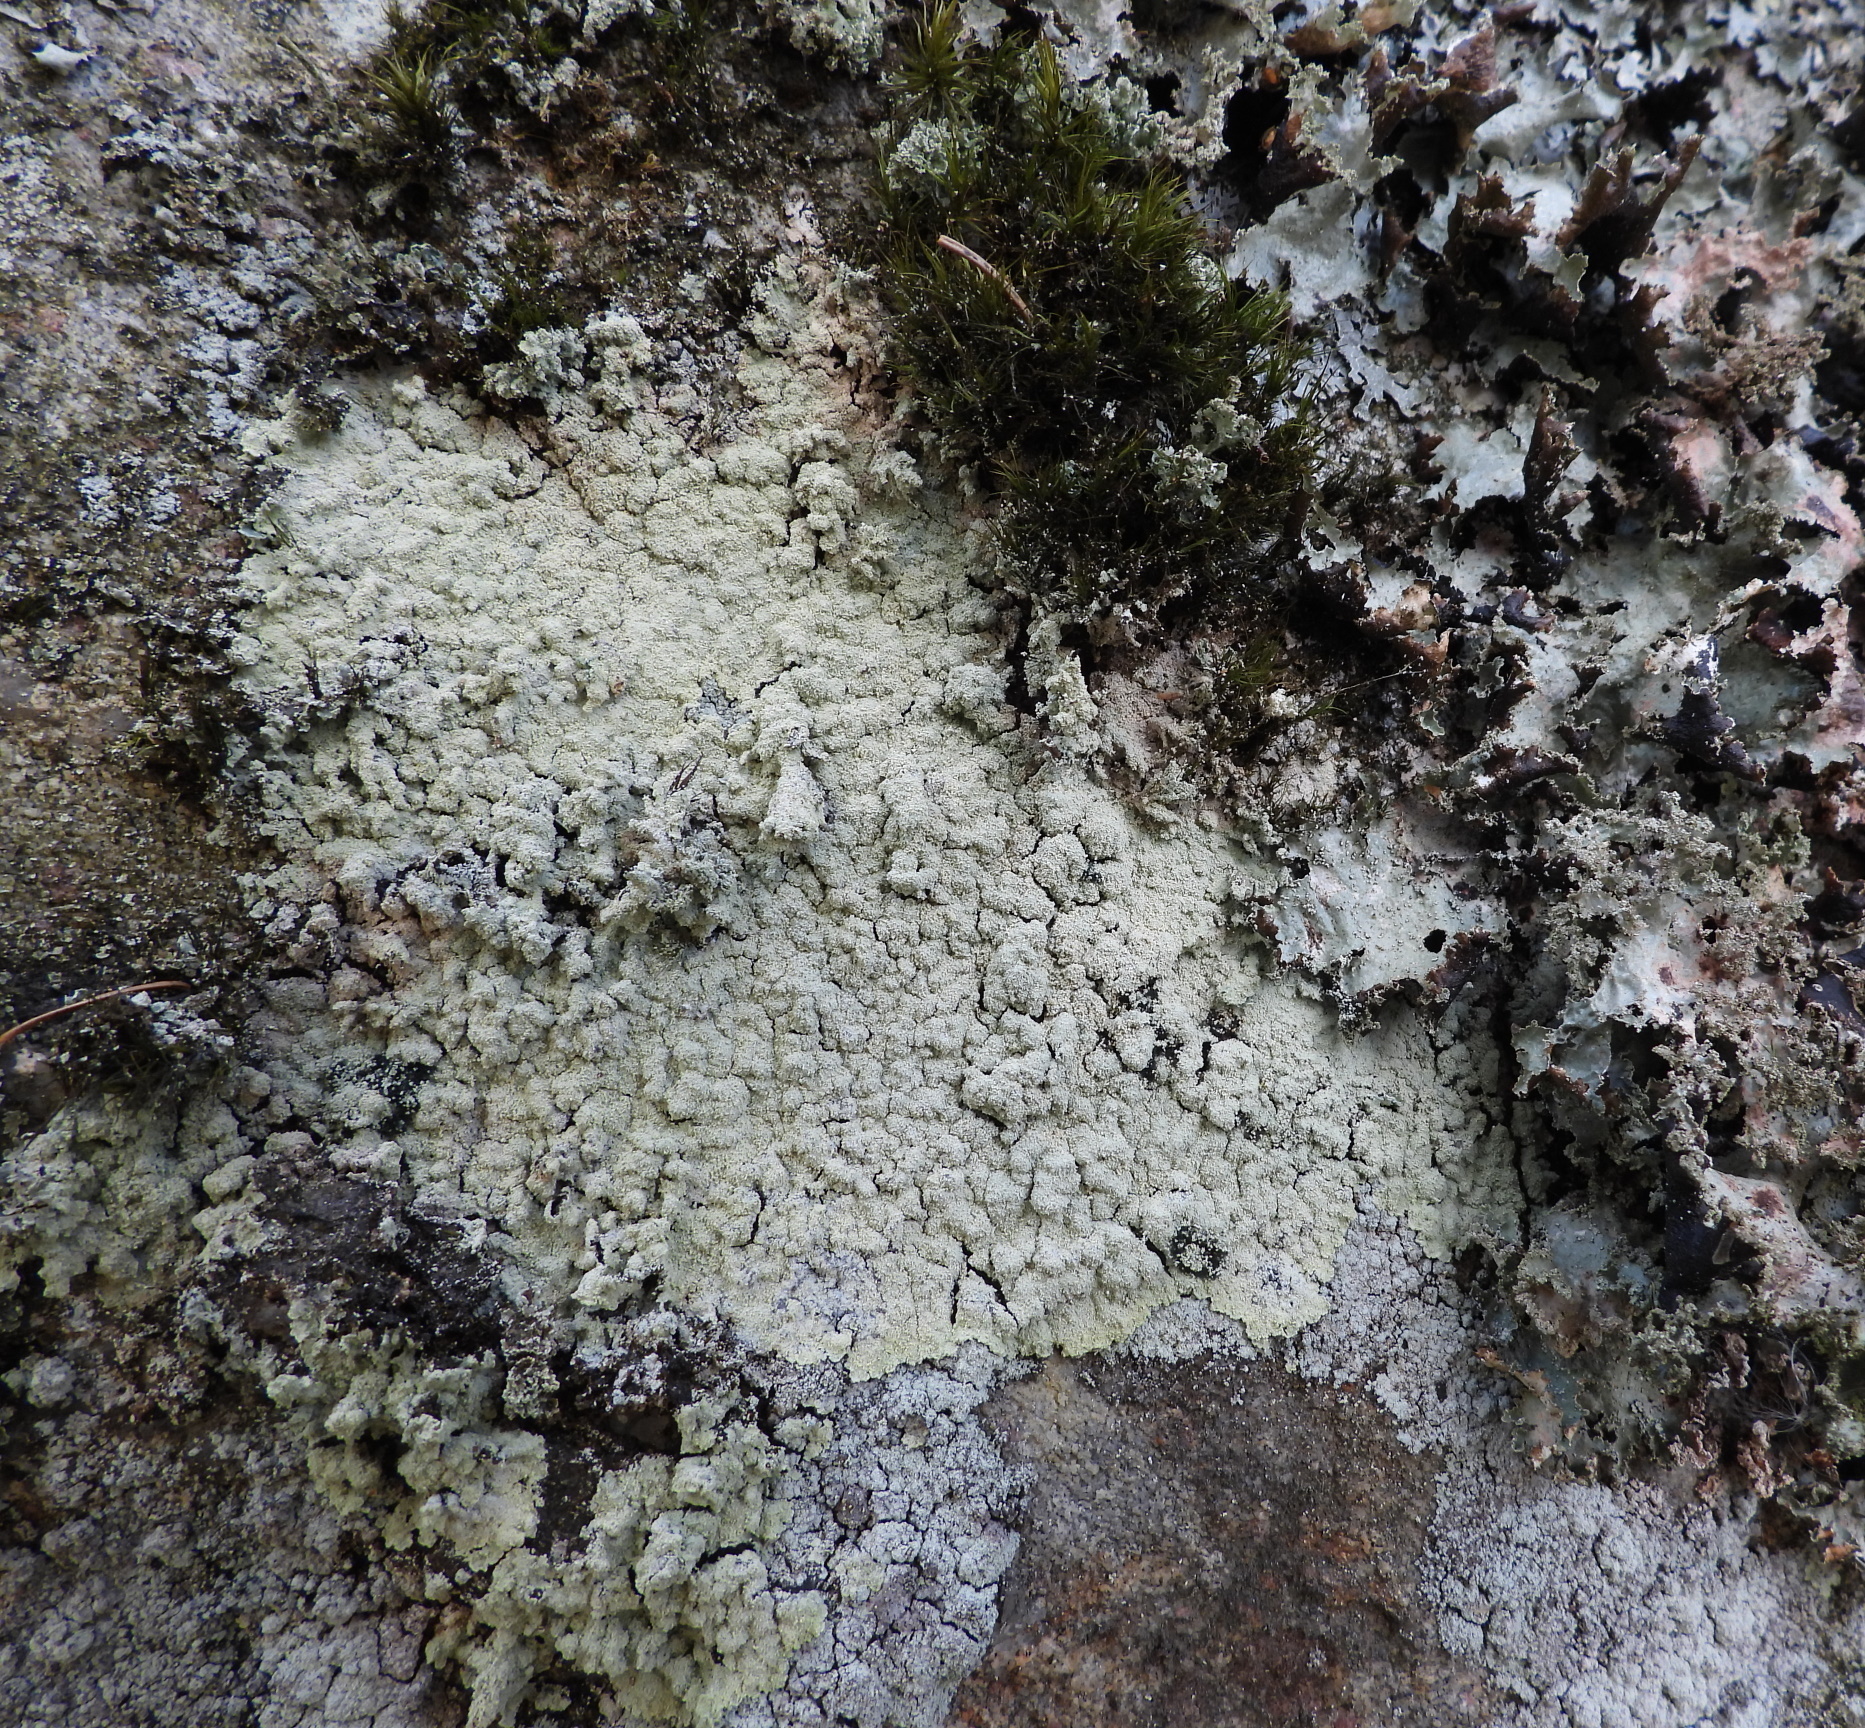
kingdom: Fungi
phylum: Ascomycota
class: Lecanoromycetes
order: Lecanorales
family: Stereocaulaceae
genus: Lepraria
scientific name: Lepraria membranacea
